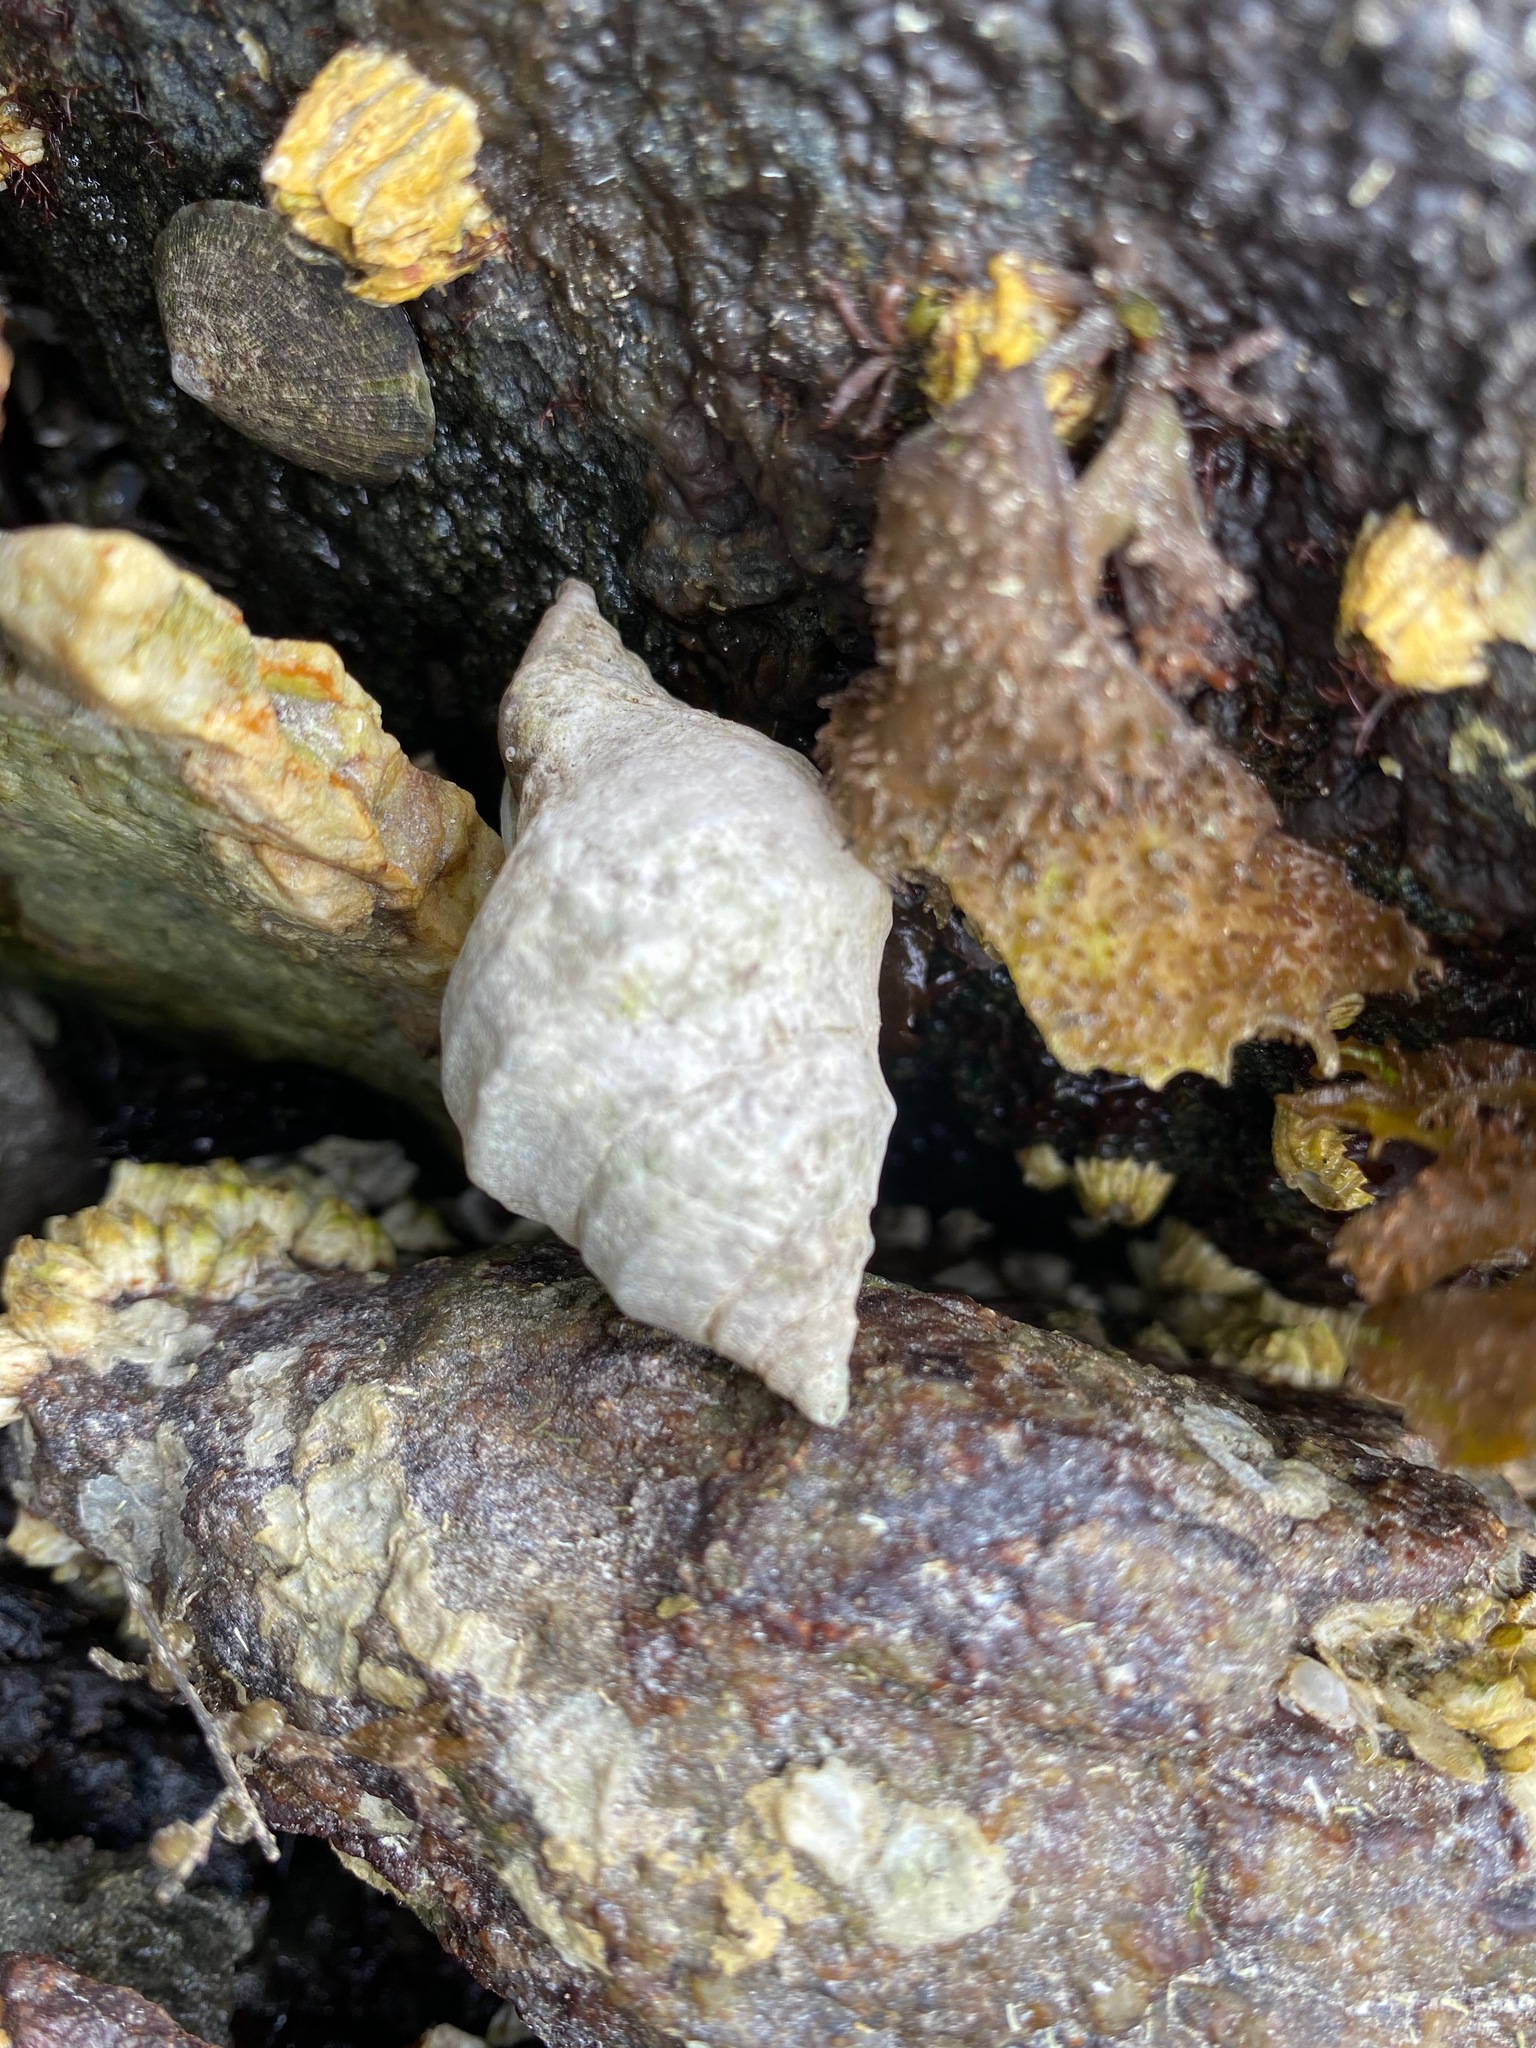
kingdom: Animalia
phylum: Mollusca
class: Gastropoda
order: Neogastropoda
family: Muricidae
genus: Nucella
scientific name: Nucella lamellosa
